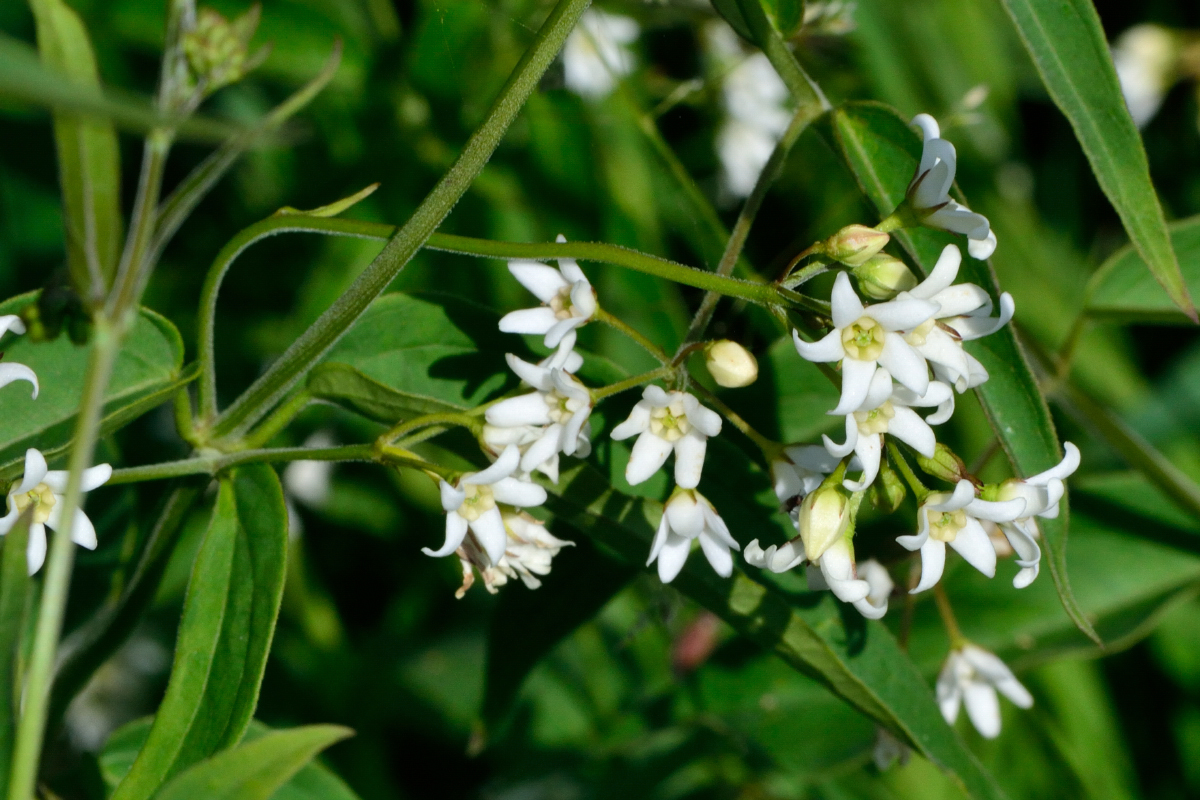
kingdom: Plantae
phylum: Tracheophyta
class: Magnoliopsida
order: Gentianales
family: Apocynaceae
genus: Vincetoxicum
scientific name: Vincetoxicum hirundinaria
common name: White swallowwort
